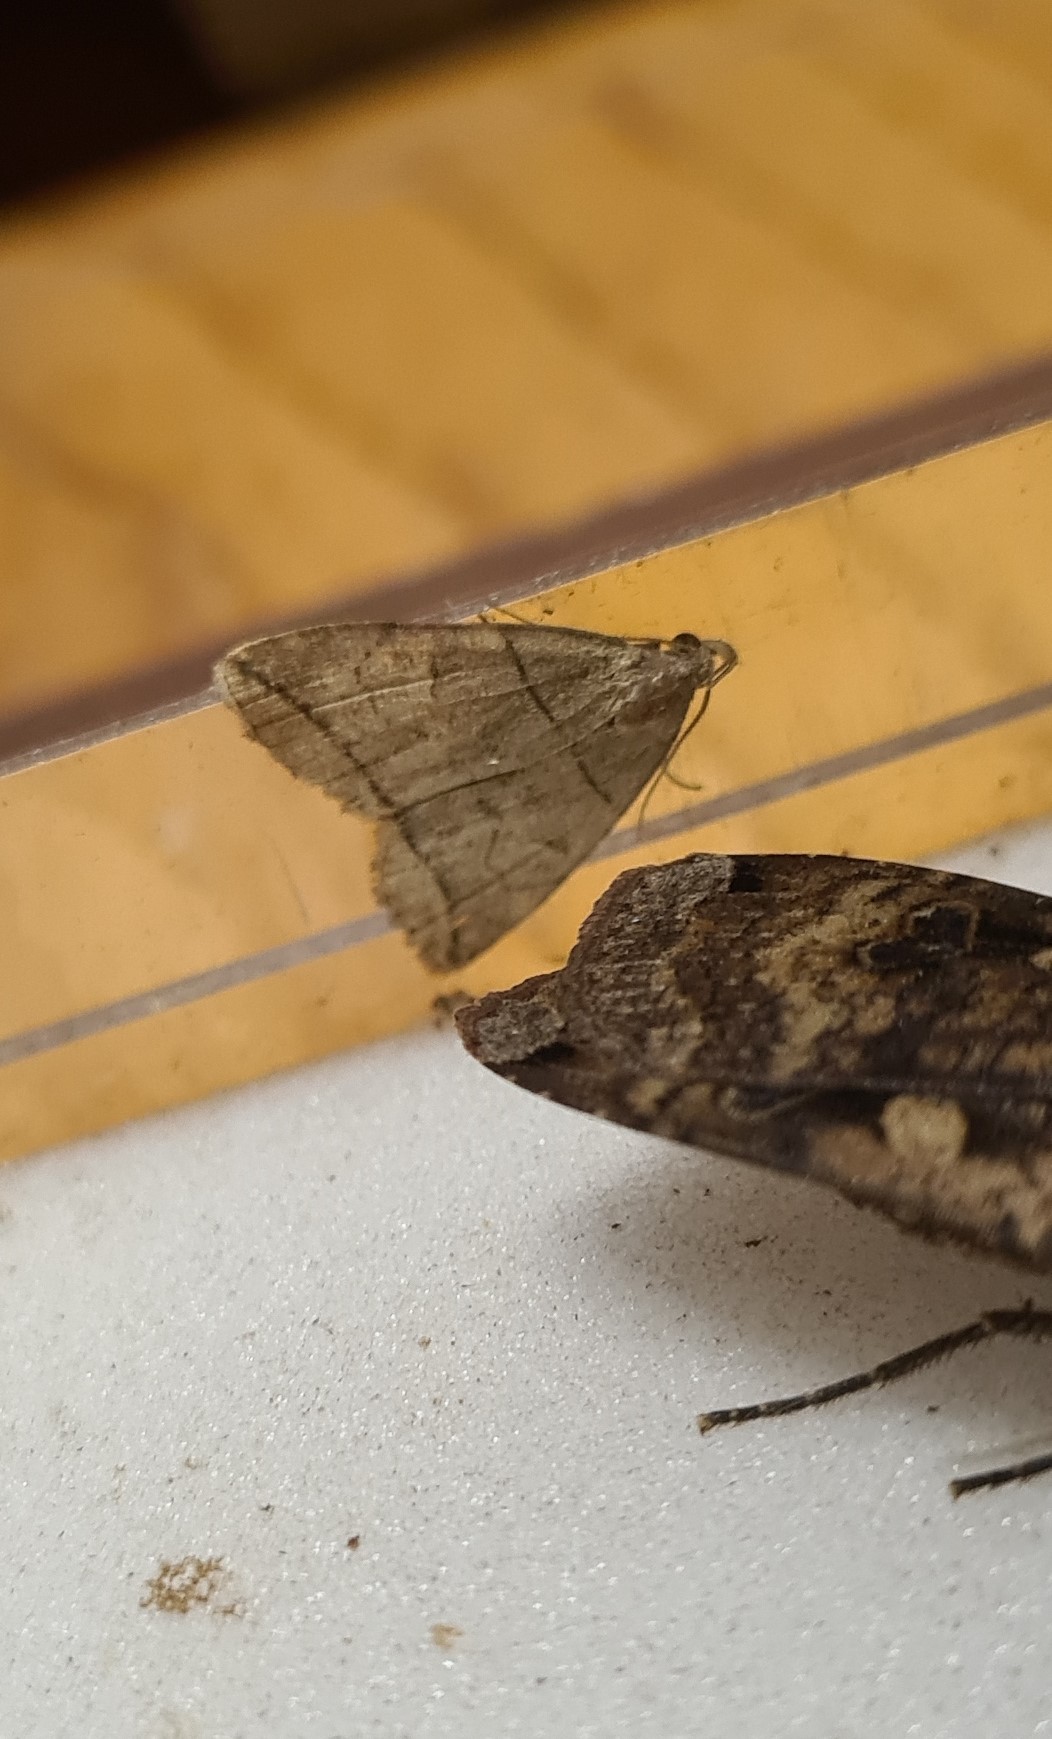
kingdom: Animalia
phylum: Arthropoda
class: Insecta
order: Lepidoptera
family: Erebidae
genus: Herminia
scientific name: Herminia grisealis
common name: Small fan-foot
